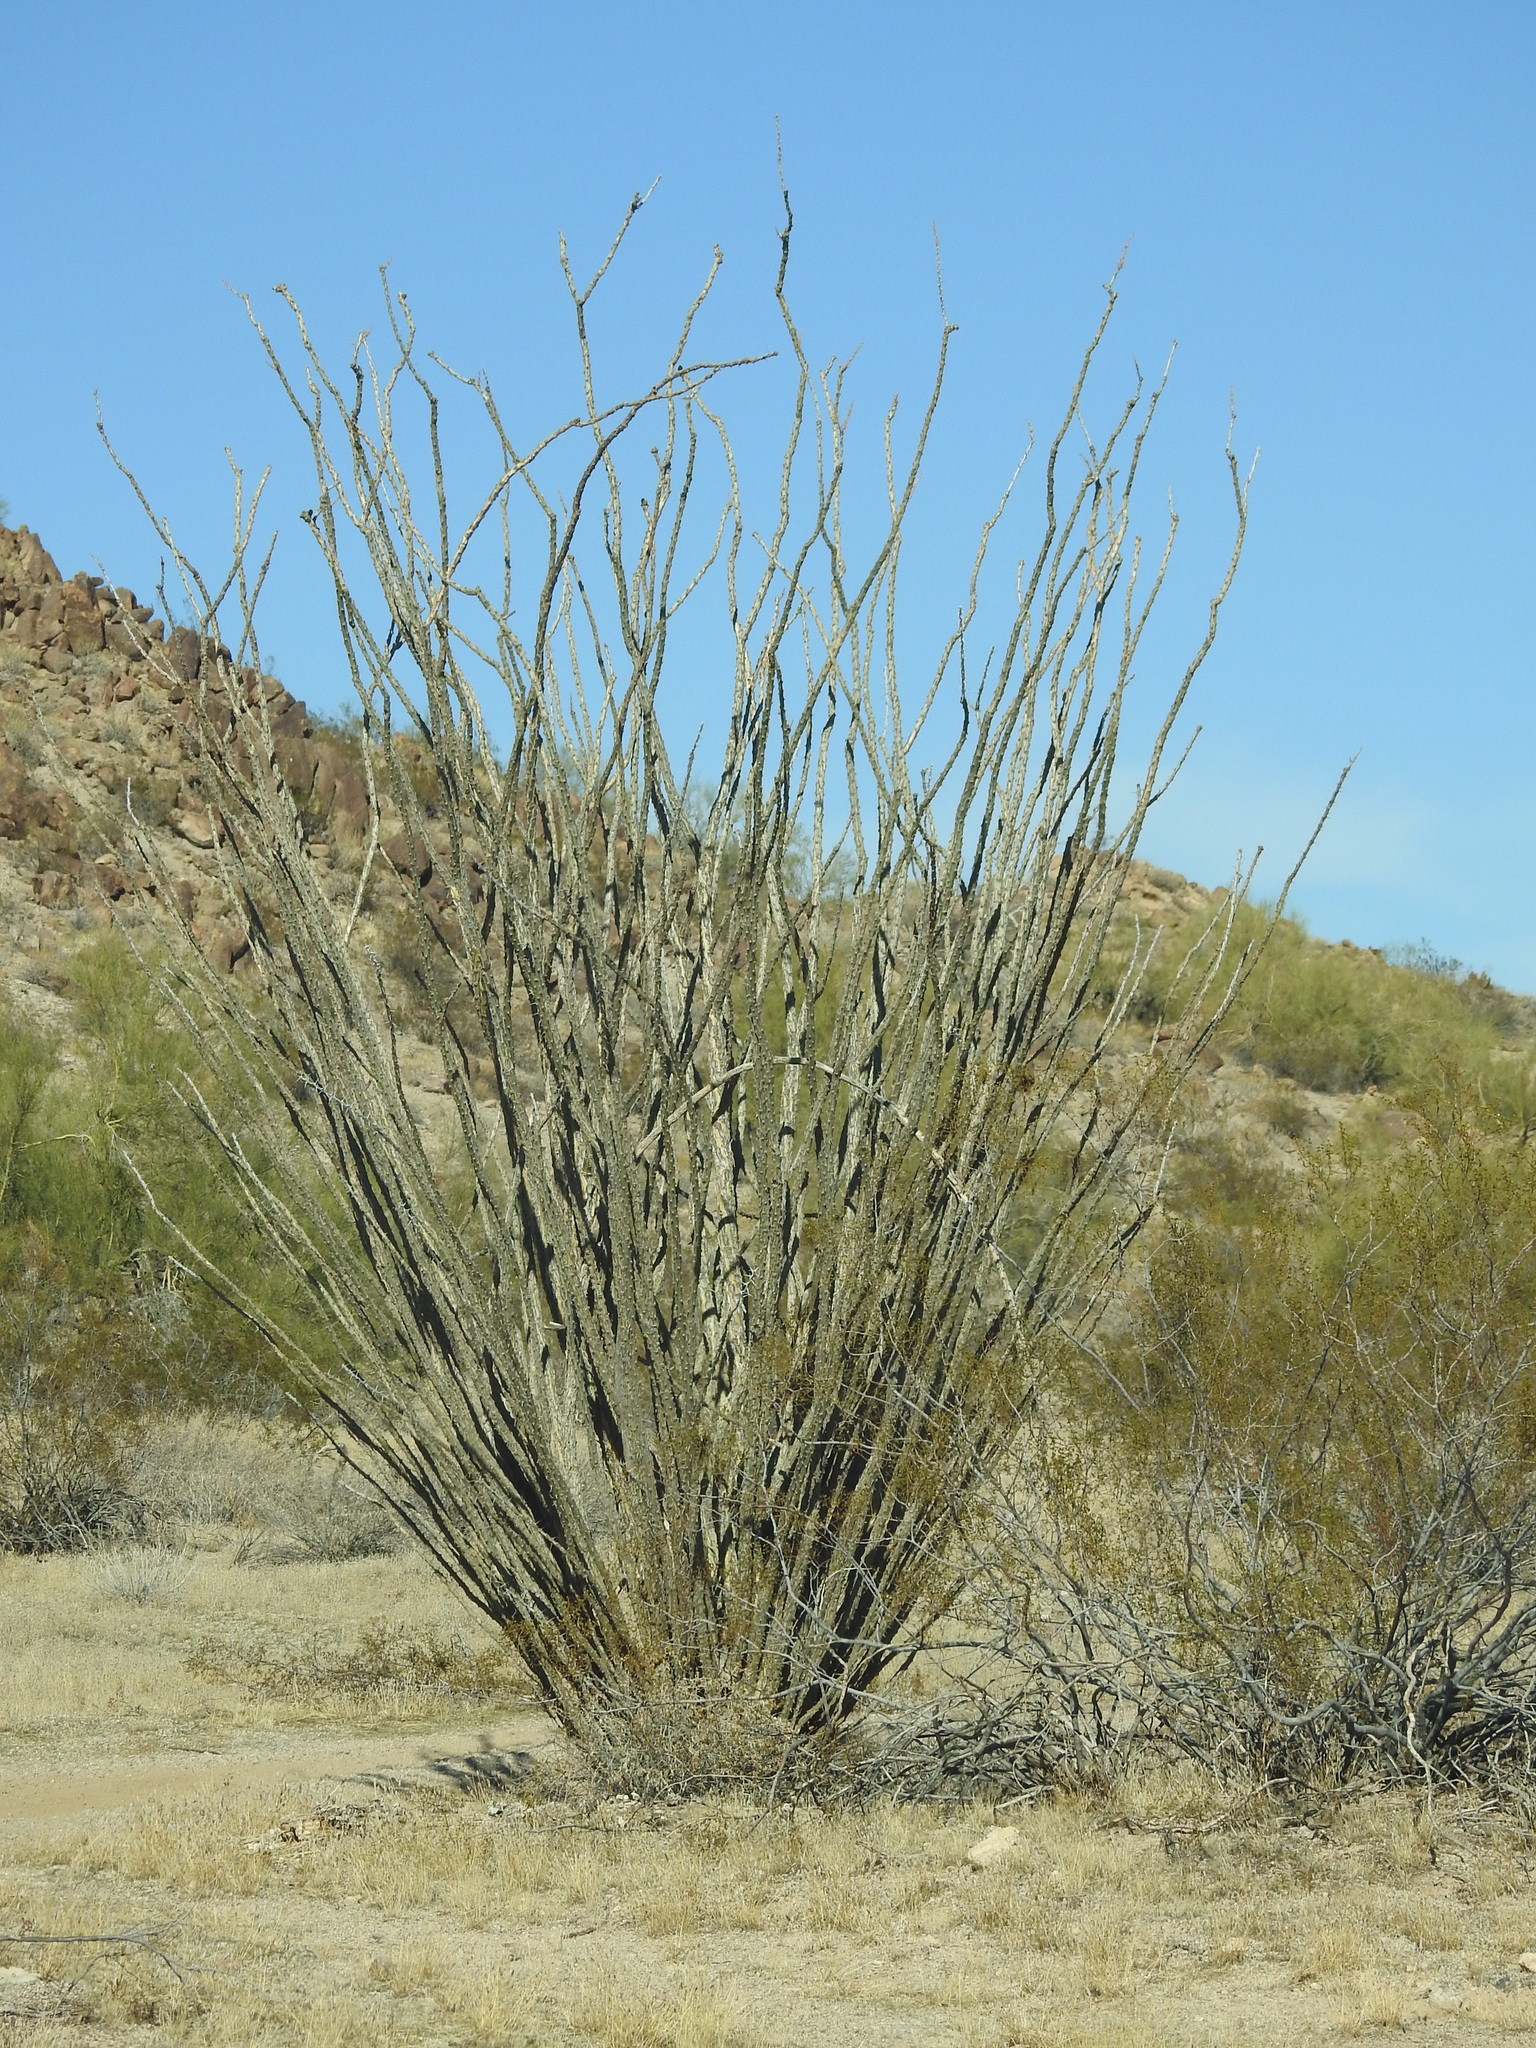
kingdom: Plantae
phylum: Tracheophyta
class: Magnoliopsida
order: Ericales
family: Fouquieriaceae
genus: Fouquieria
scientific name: Fouquieria splendens
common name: Vine-cactus
